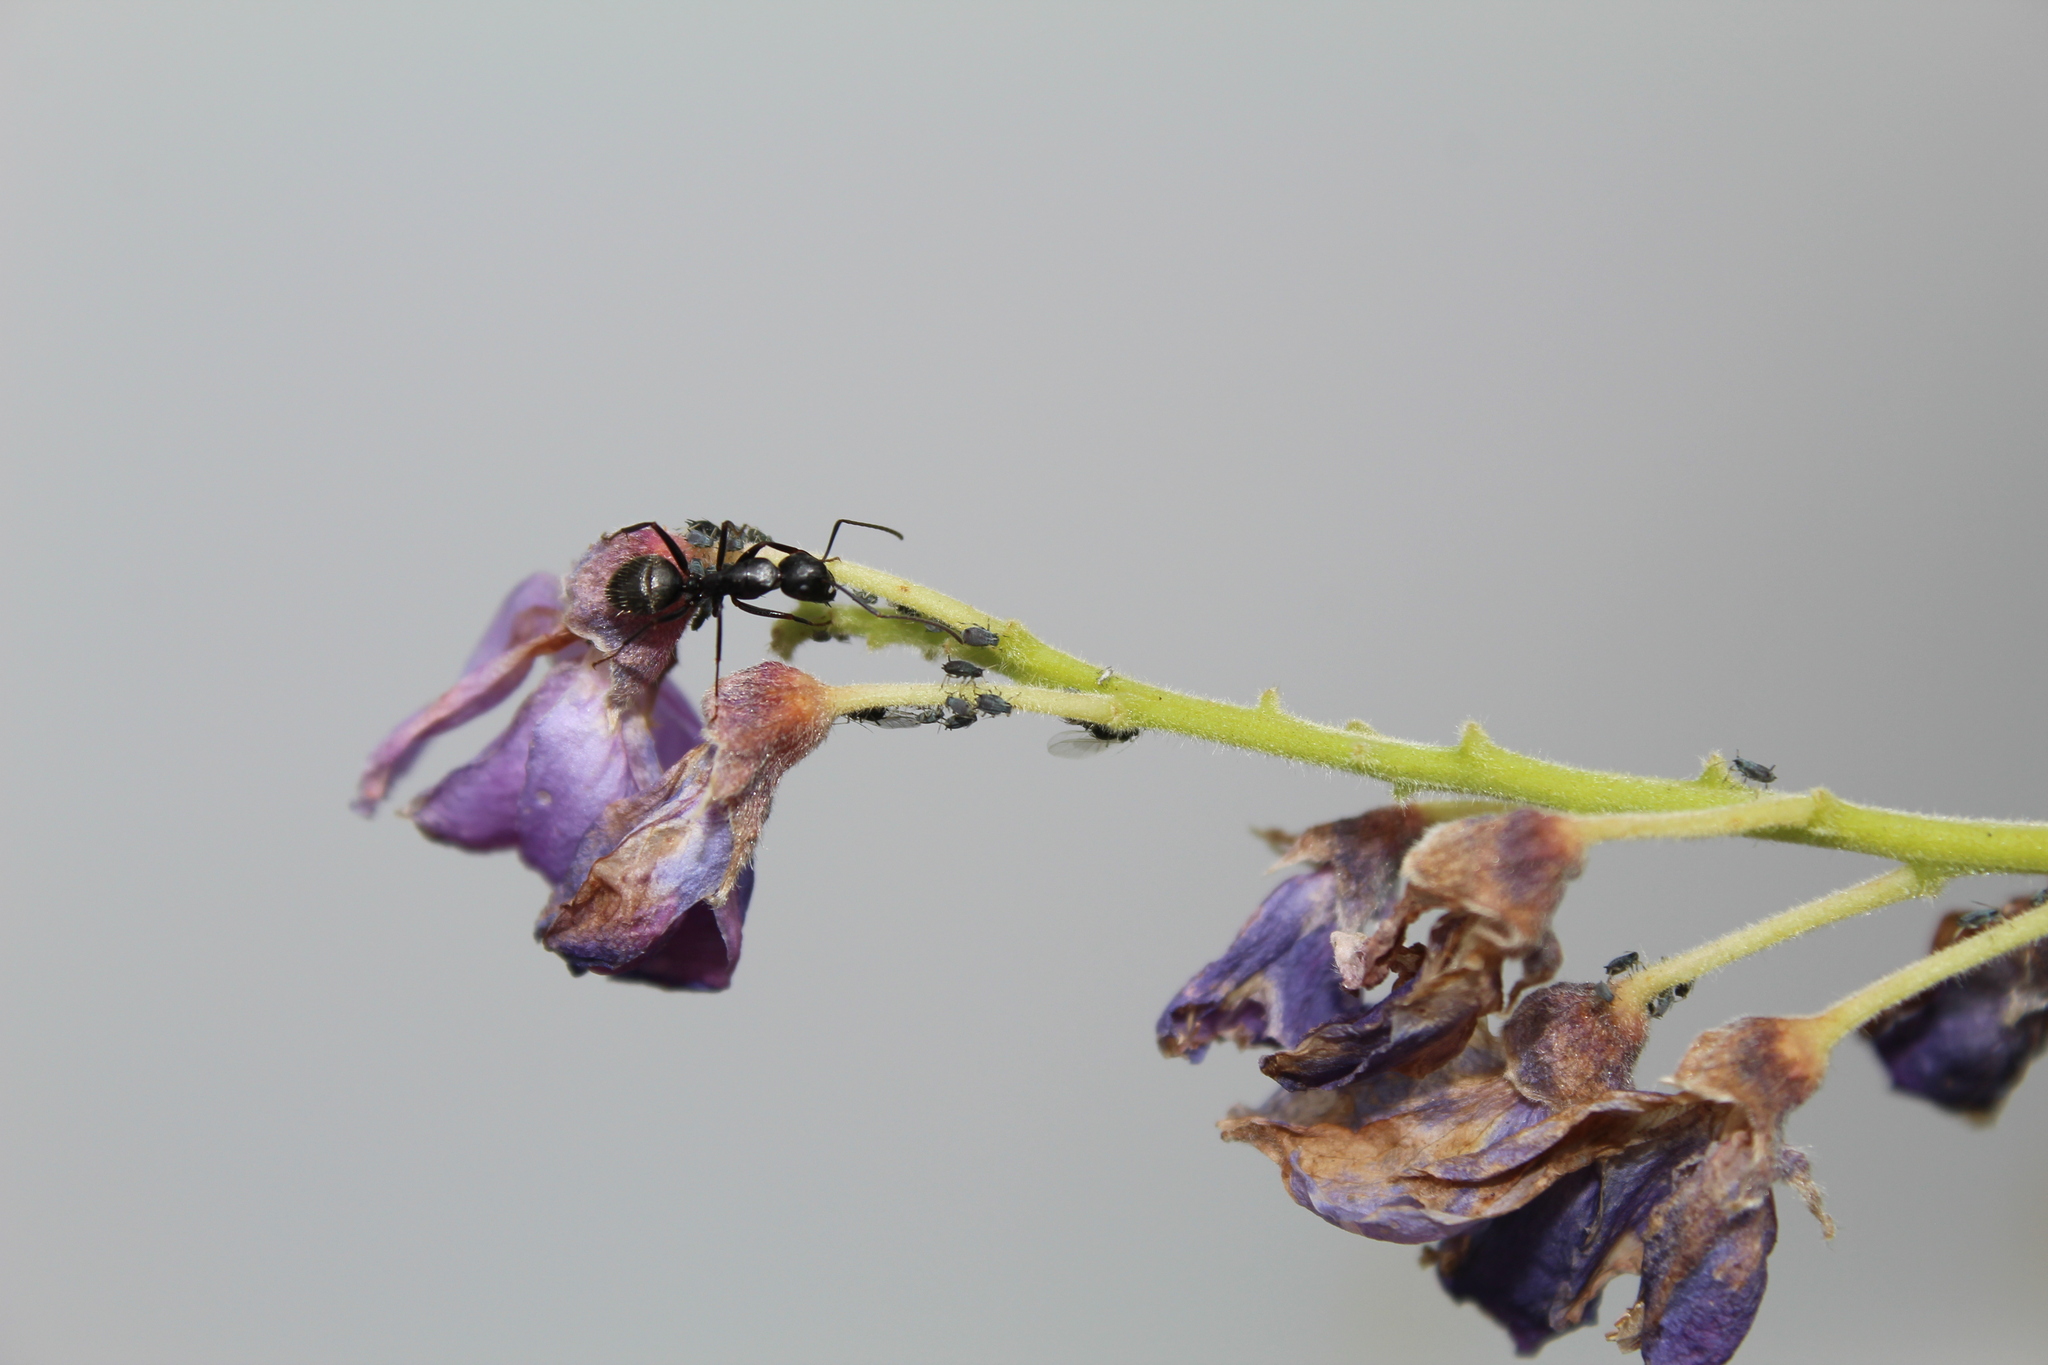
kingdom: Animalia
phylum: Arthropoda
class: Insecta
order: Hymenoptera
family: Formicidae
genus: Camponotus
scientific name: Camponotus pennsylvanicus
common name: Black carpenter ant
